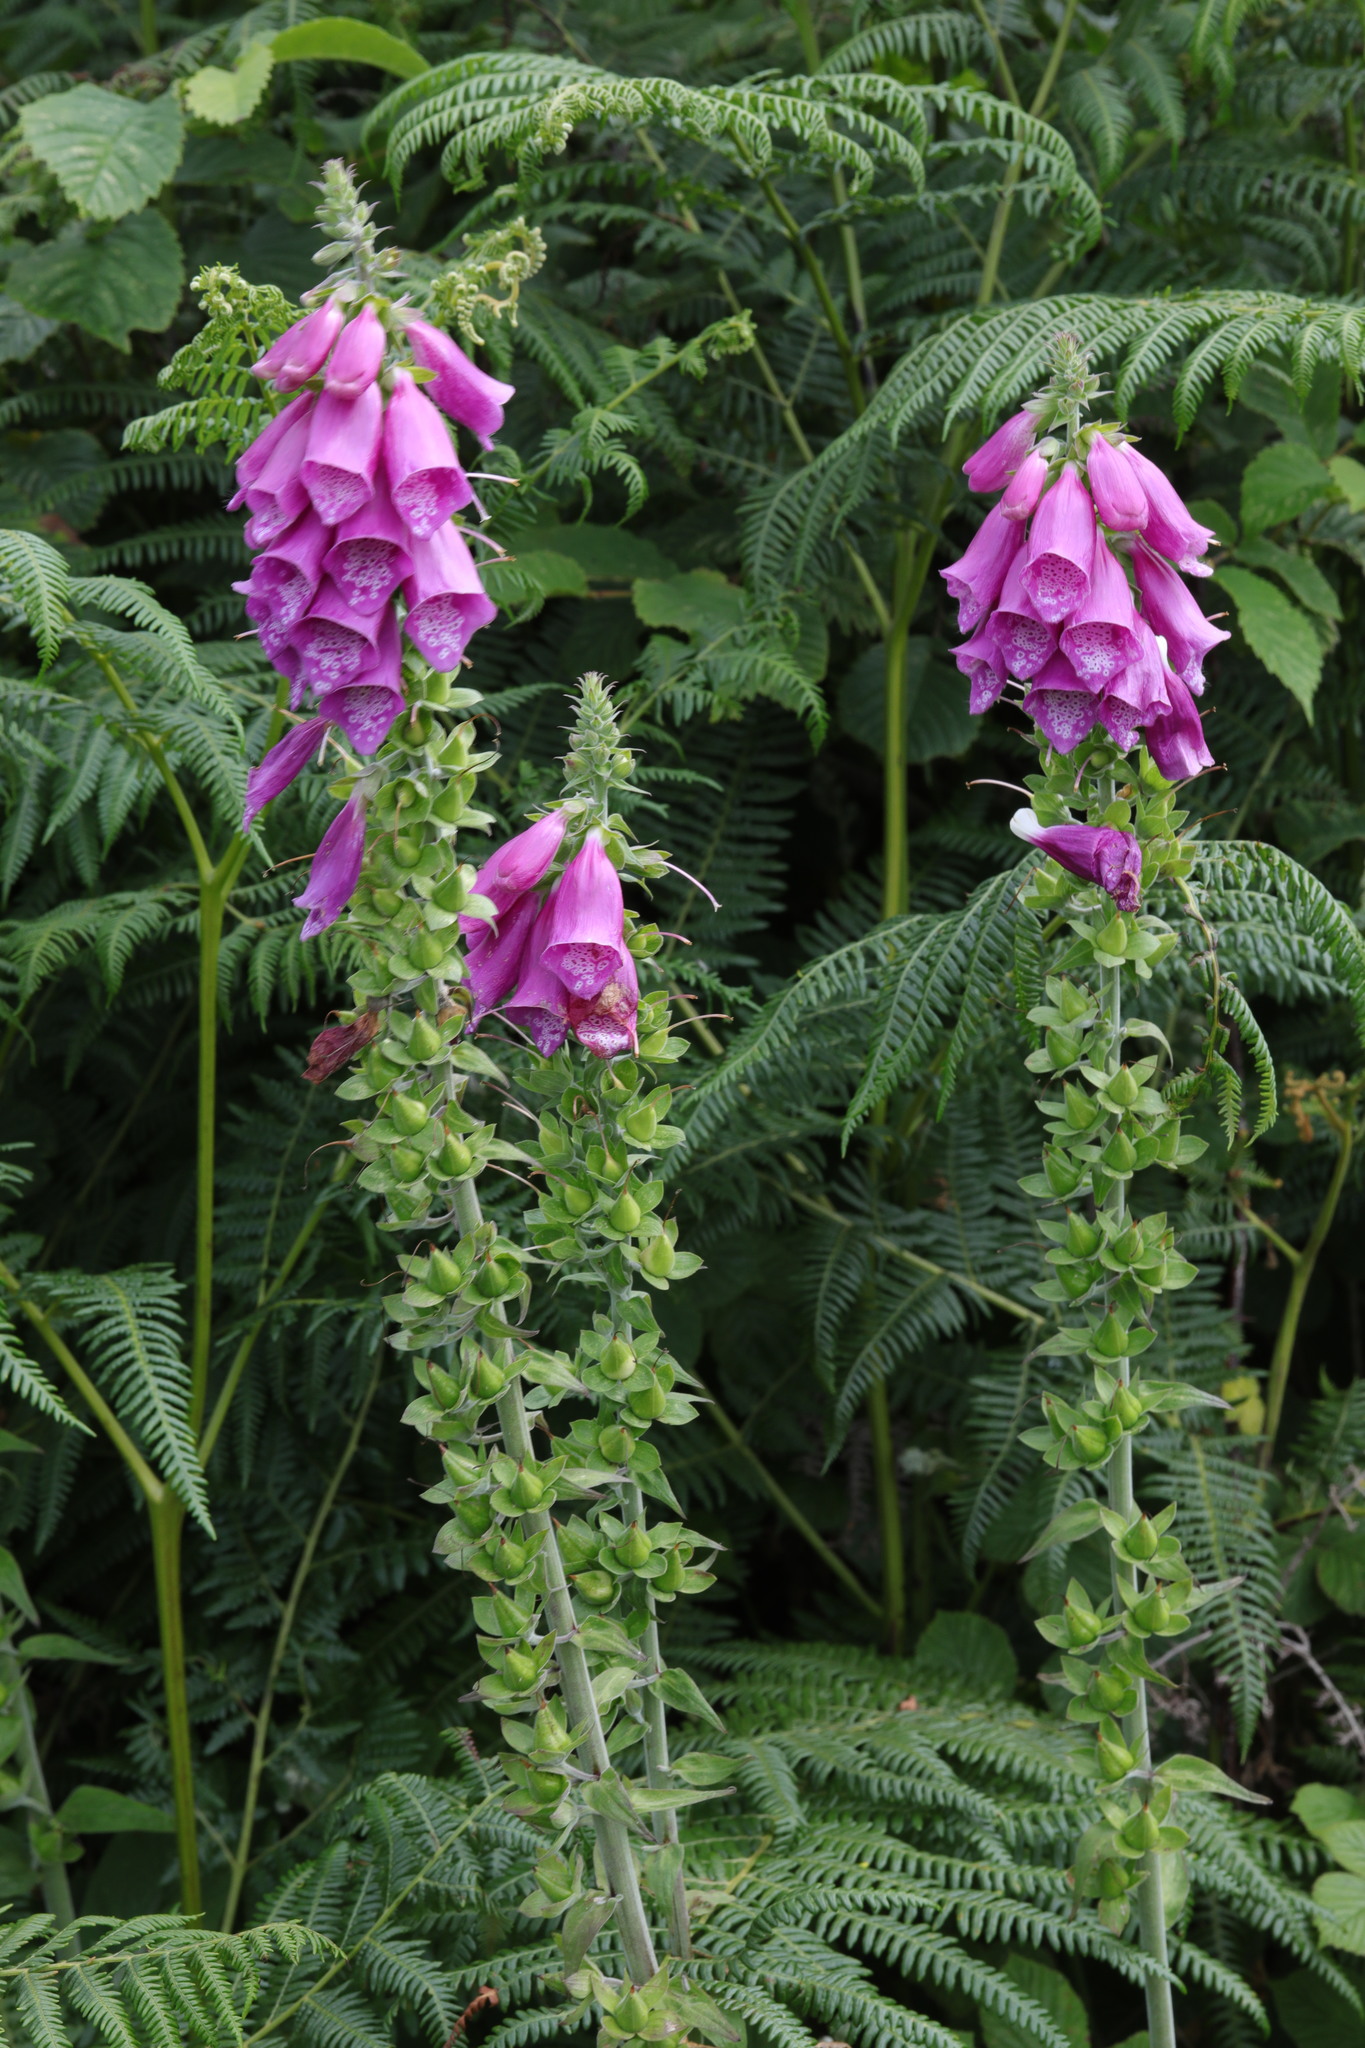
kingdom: Plantae
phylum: Tracheophyta
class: Magnoliopsida
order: Lamiales
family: Plantaginaceae
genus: Digitalis
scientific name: Digitalis purpurea
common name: Foxglove
